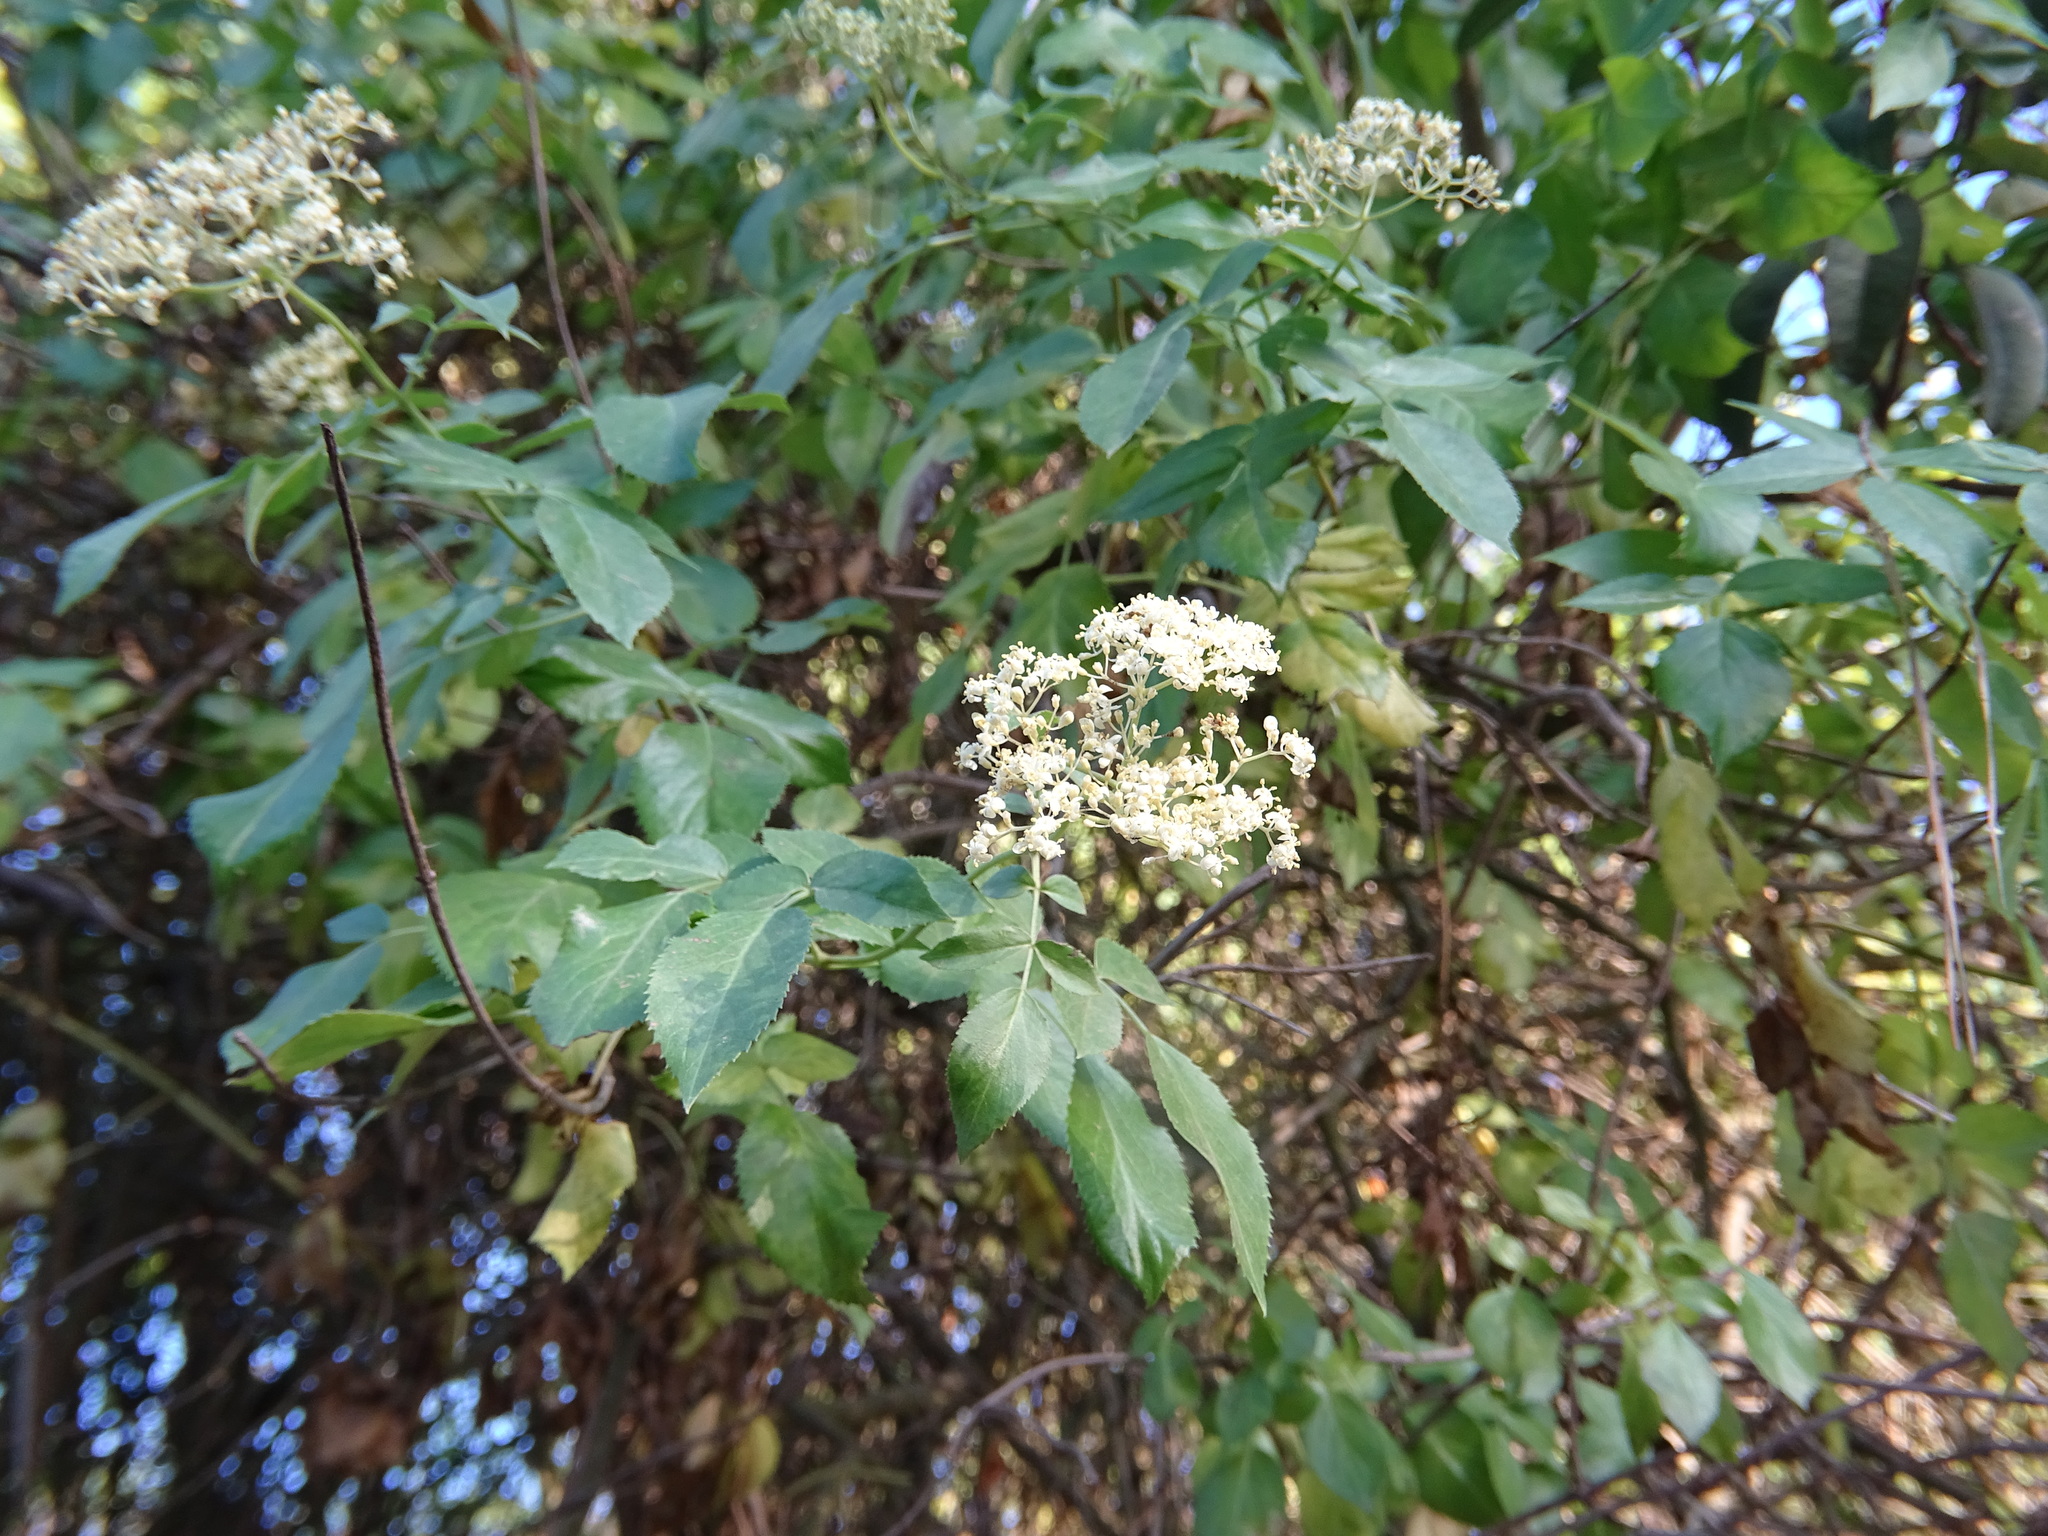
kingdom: Plantae
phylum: Tracheophyta
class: Magnoliopsida
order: Dipsacales
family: Viburnaceae
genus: Sambucus
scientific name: Sambucus cerulea
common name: Blue elder
